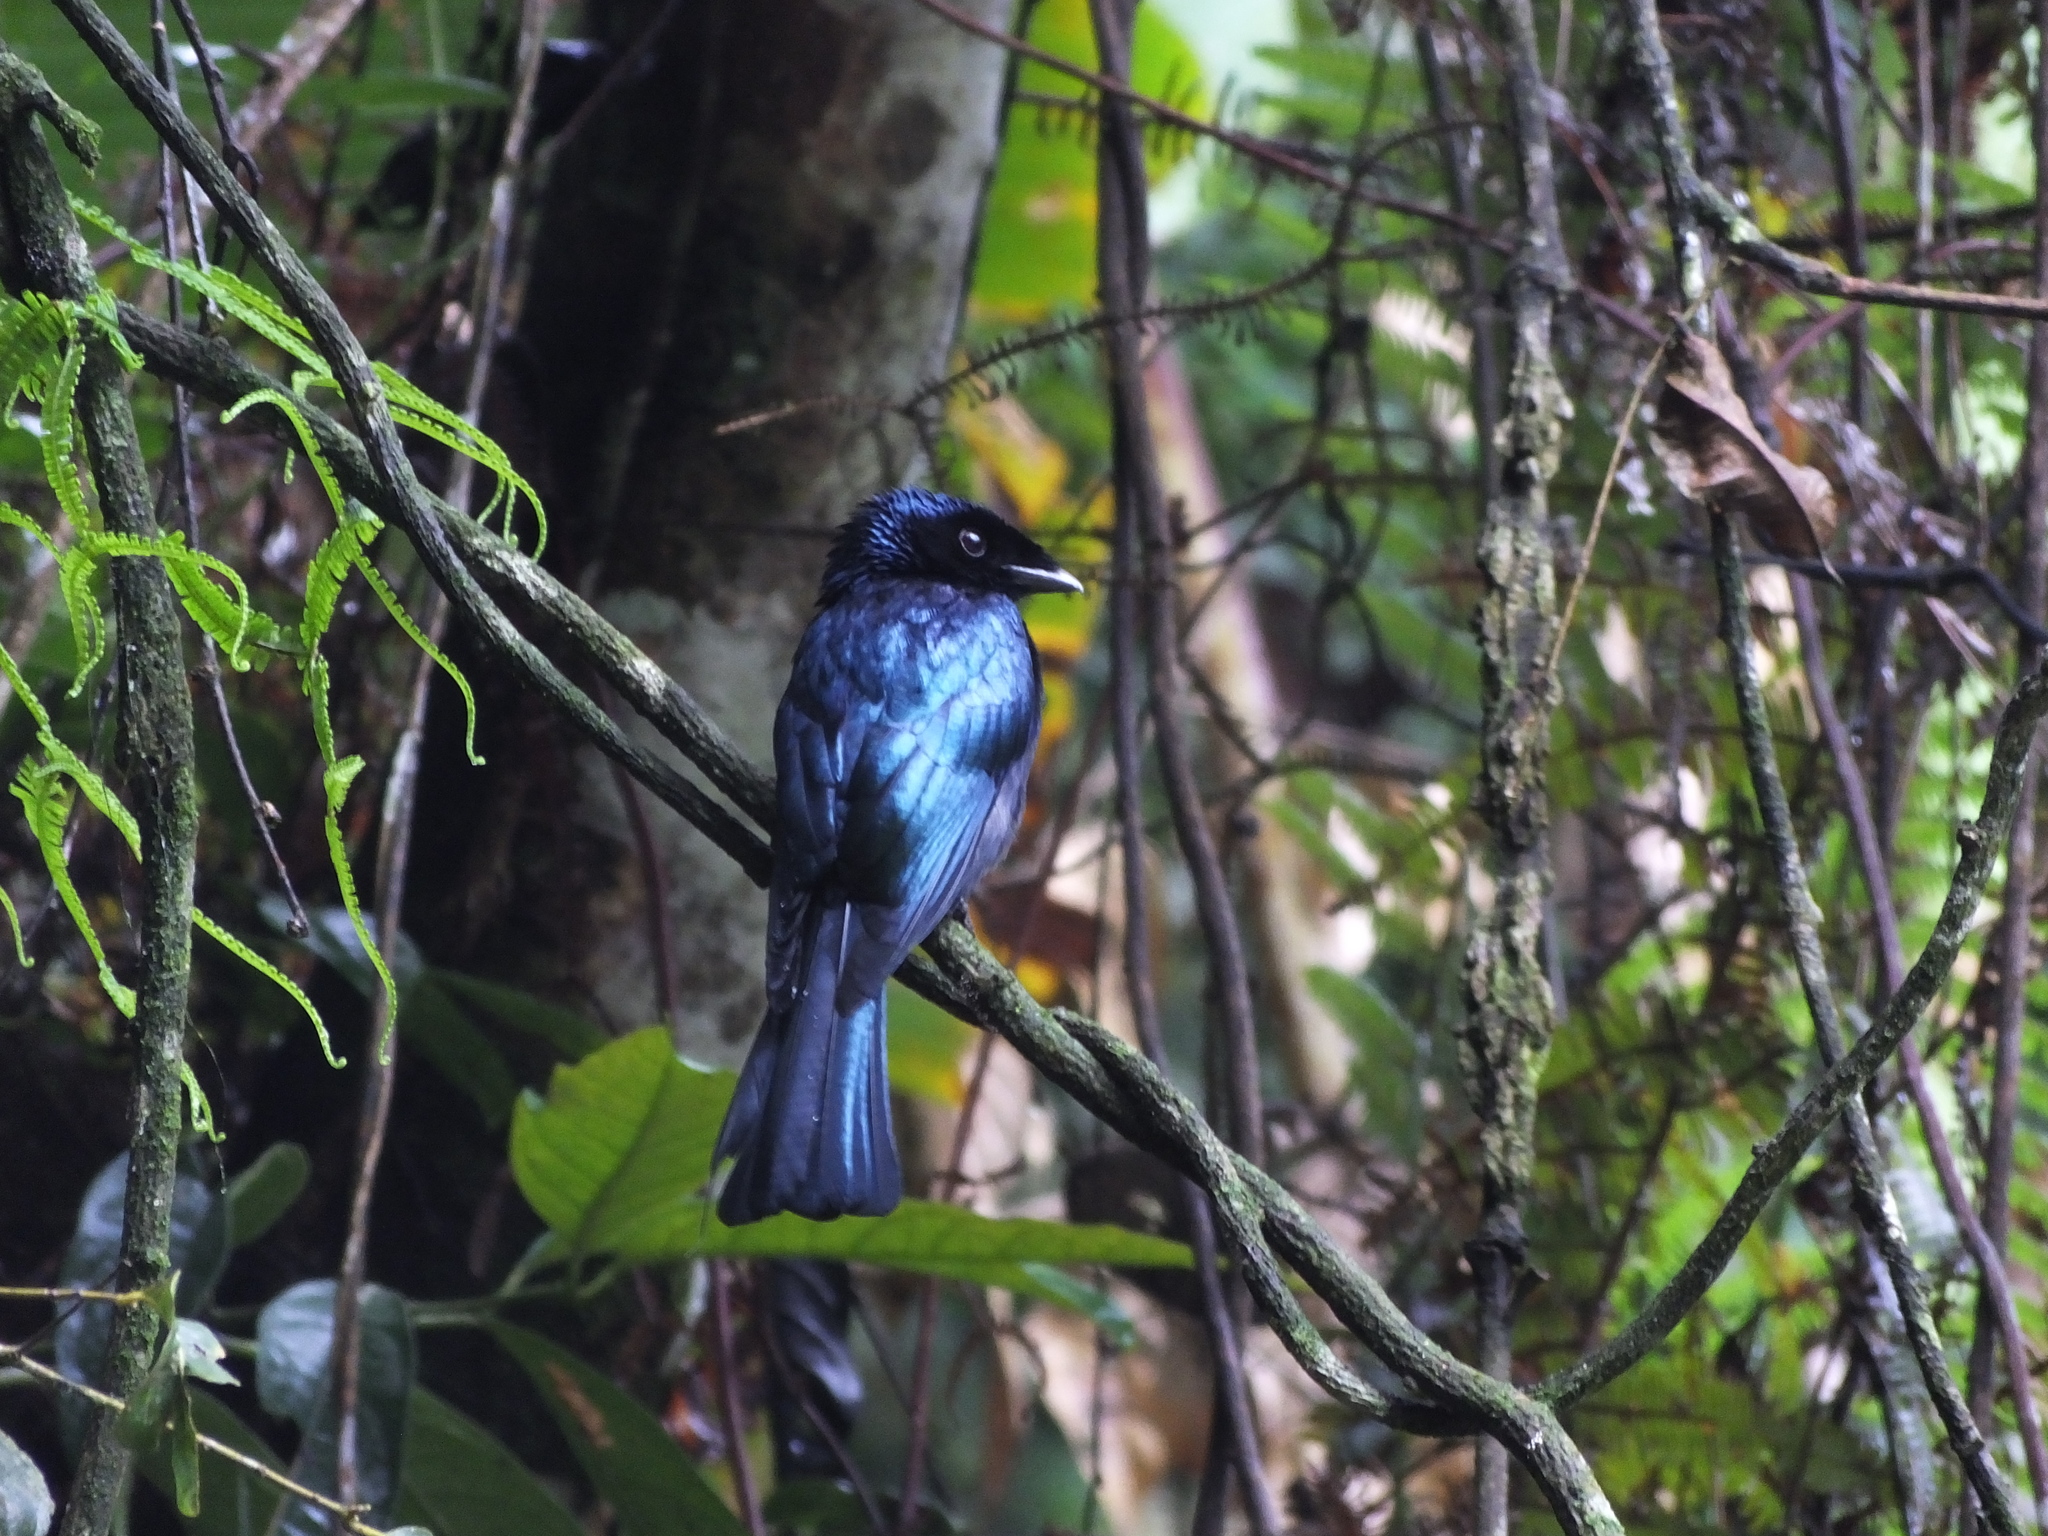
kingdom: Animalia
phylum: Chordata
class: Aves
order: Passeriformes
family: Dicruridae
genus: Dicrurus
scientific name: Dicrurus remifer
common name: Lesser racket-tailed drongo
